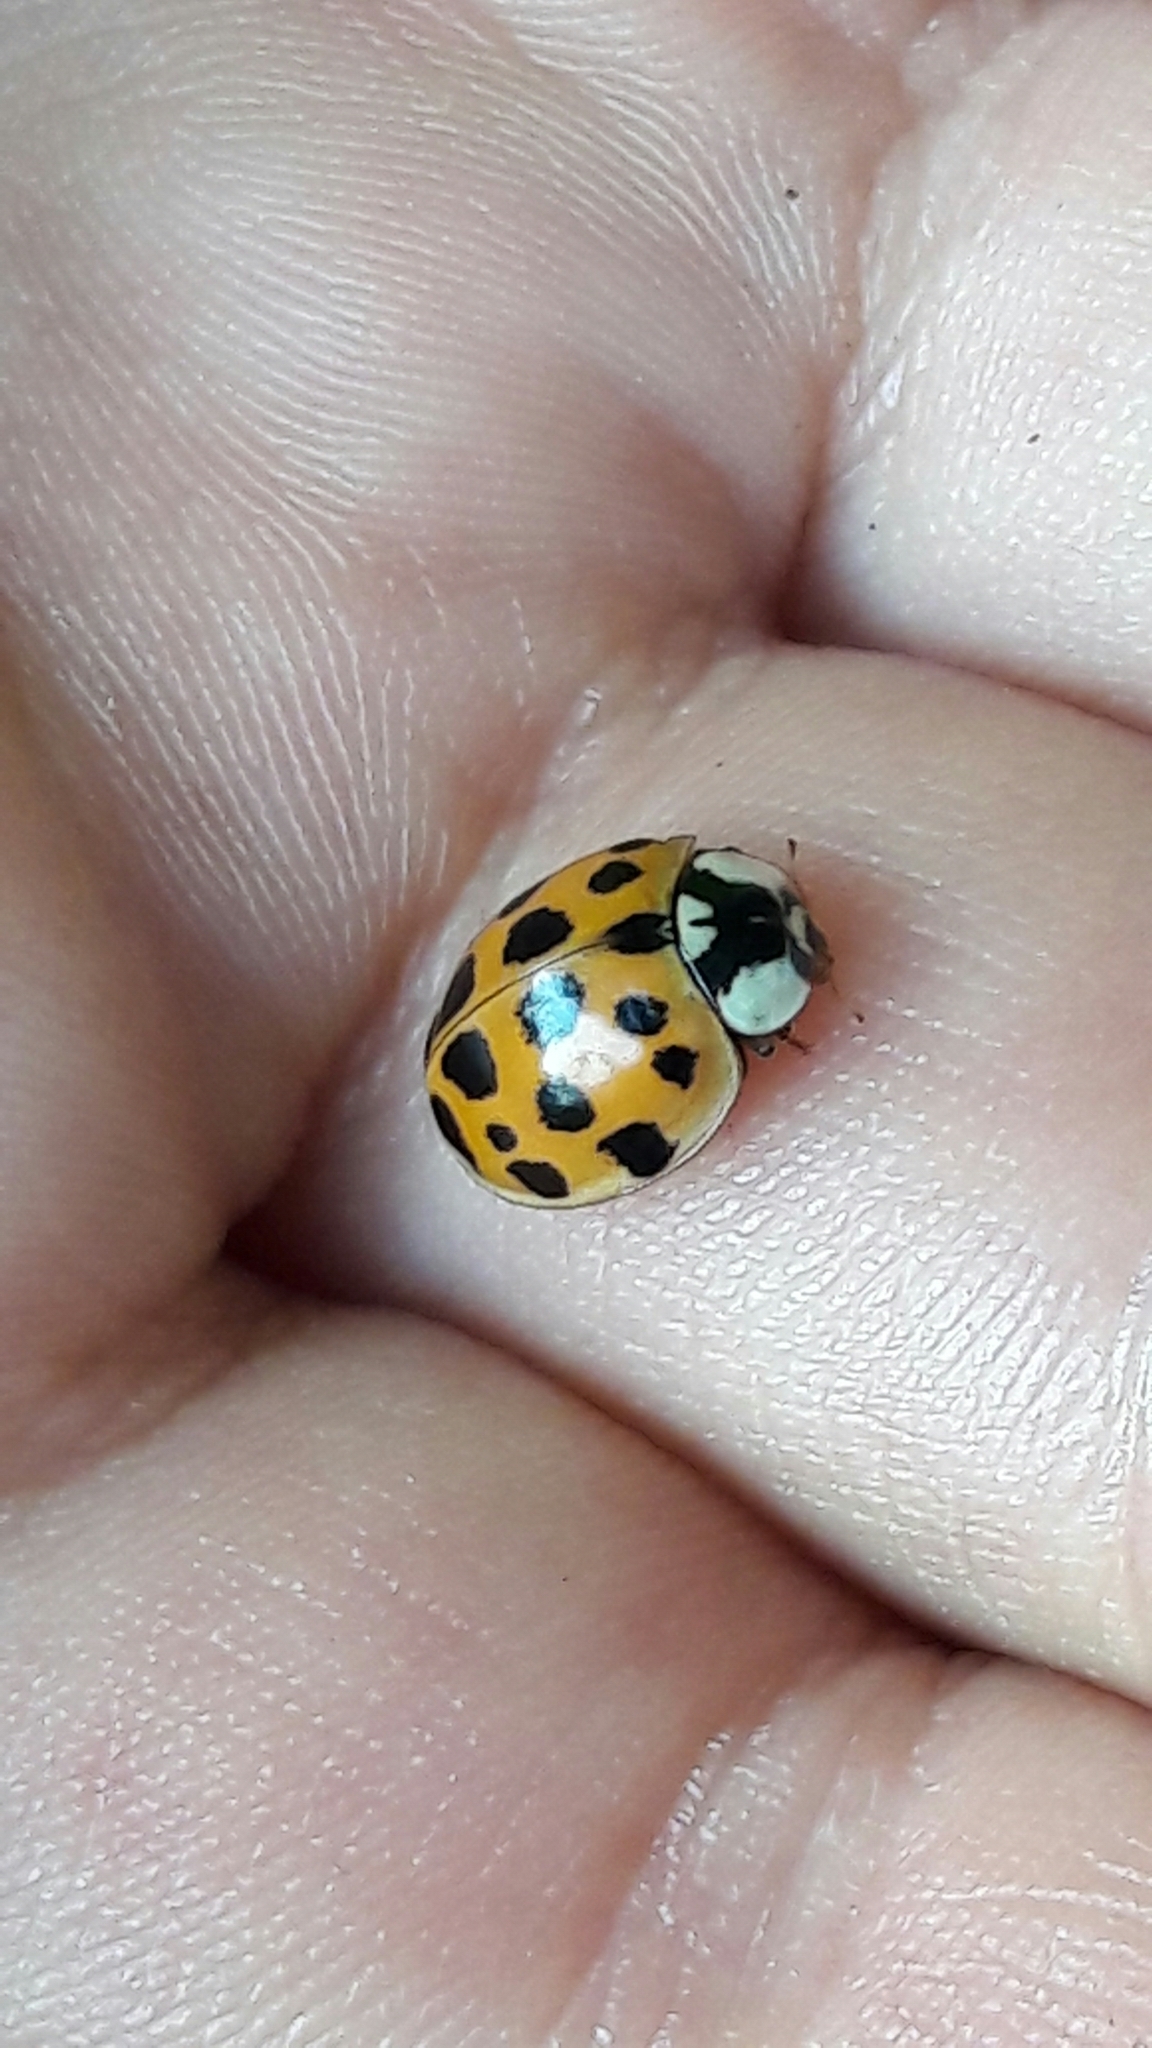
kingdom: Animalia
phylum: Arthropoda
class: Insecta
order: Coleoptera
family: Coccinellidae
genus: Harmonia
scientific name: Harmonia axyridis
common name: Harlequin ladybird
